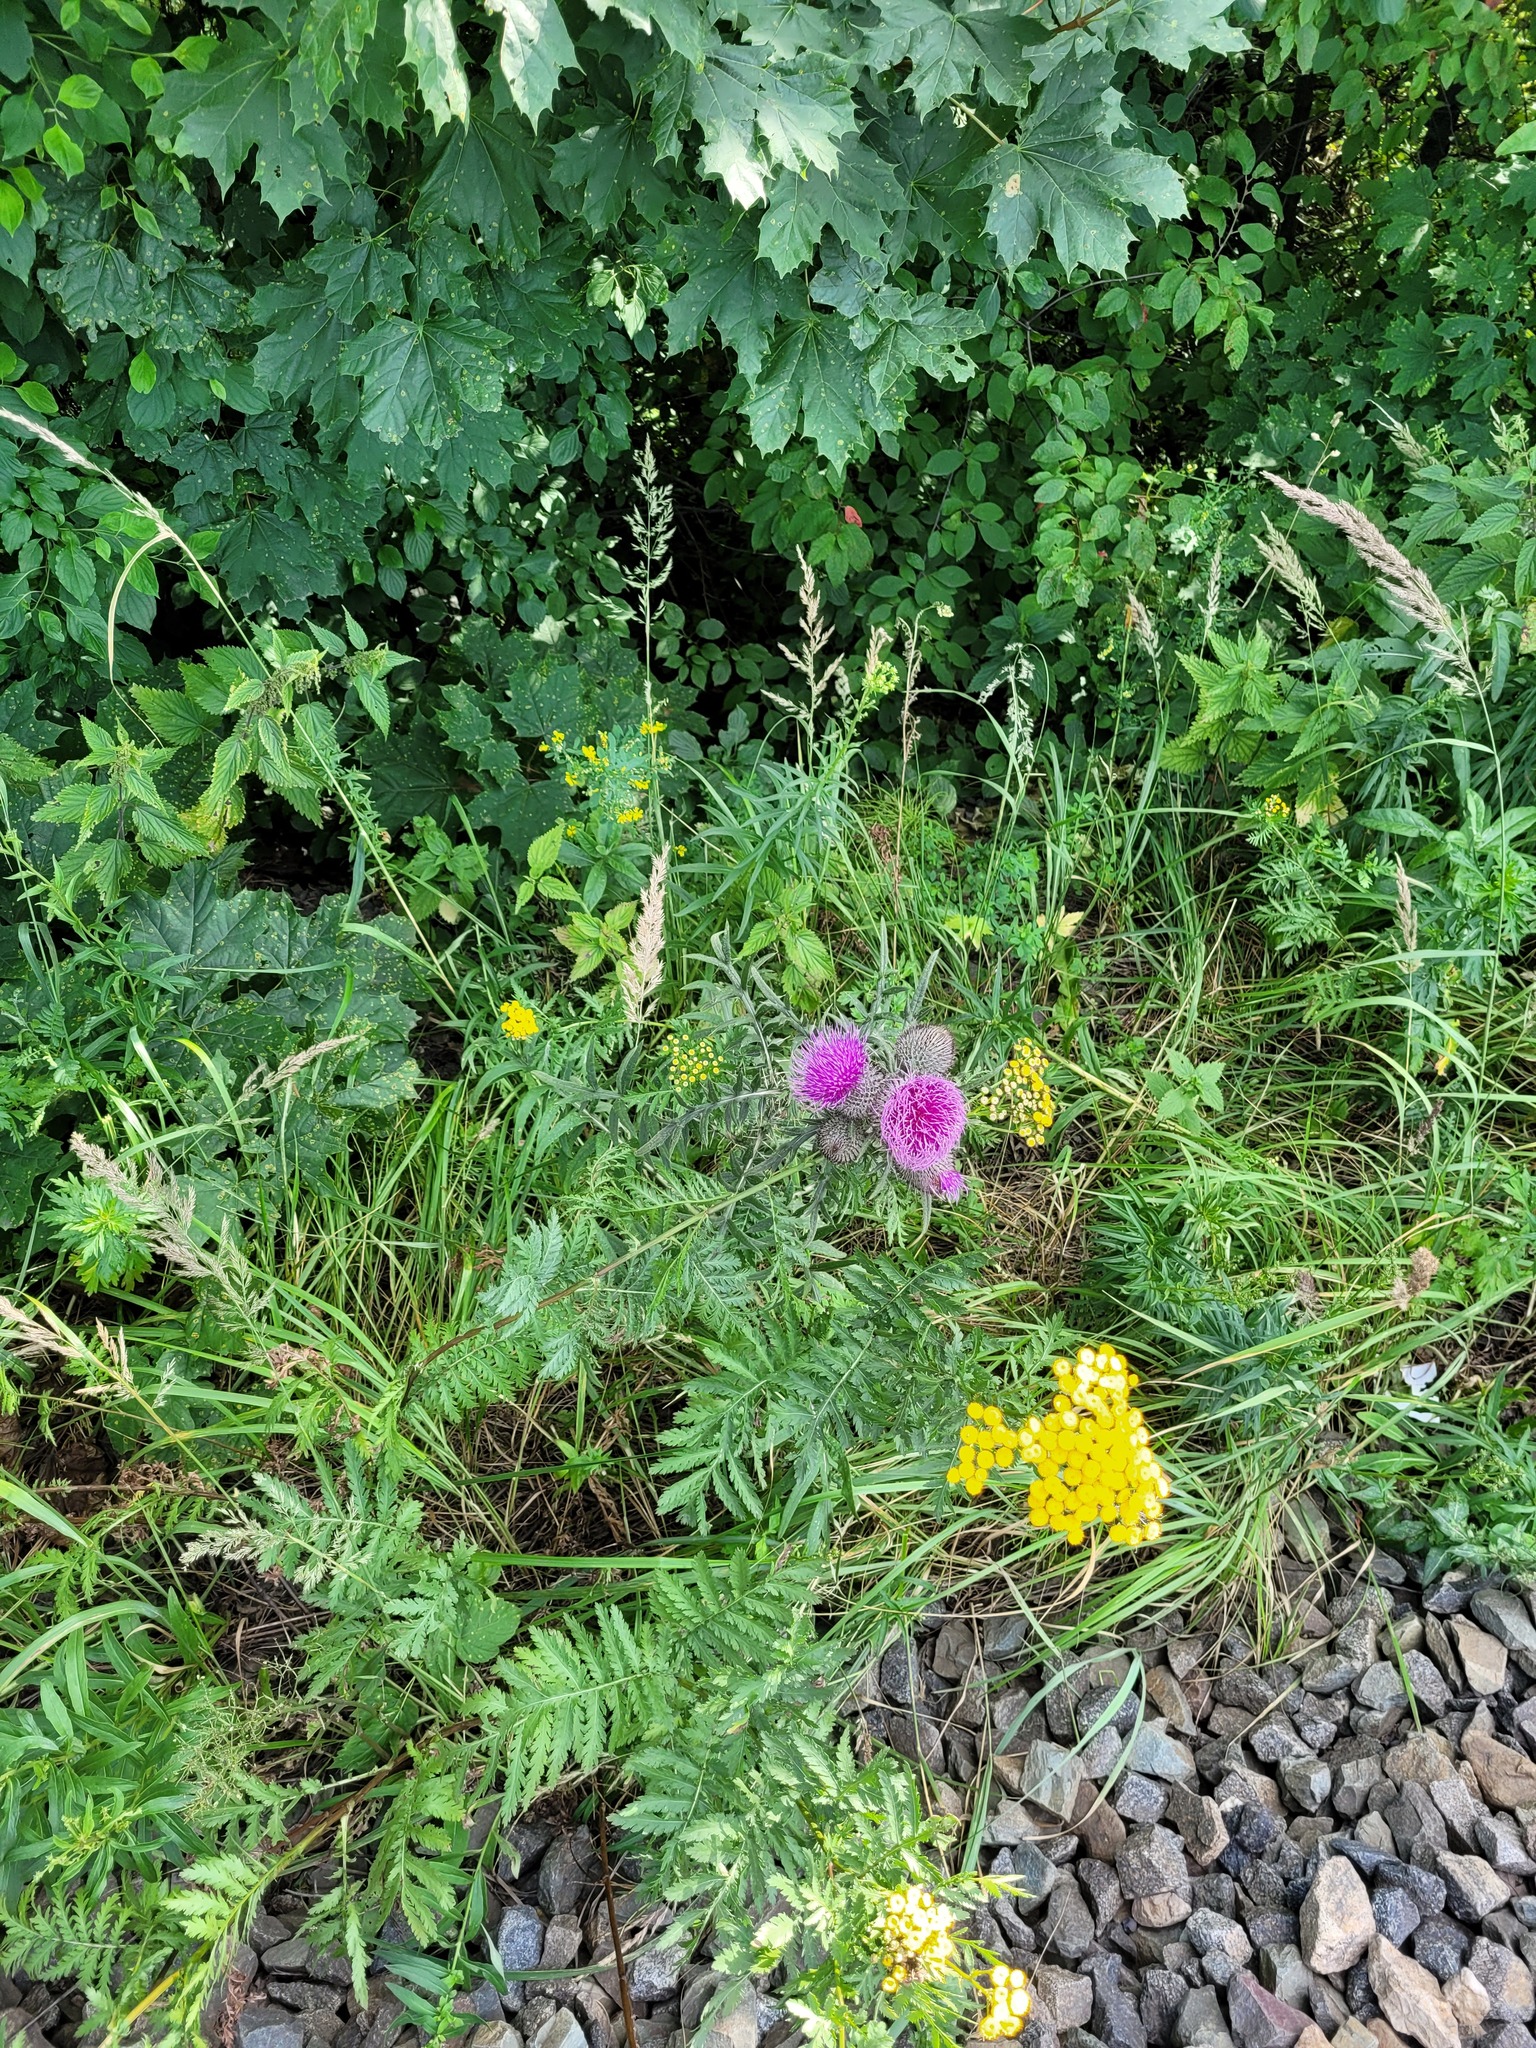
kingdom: Plantae
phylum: Tracheophyta
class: Magnoliopsida
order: Asterales
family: Asteraceae
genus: Lophiolepis
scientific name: Lophiolepis decussata
